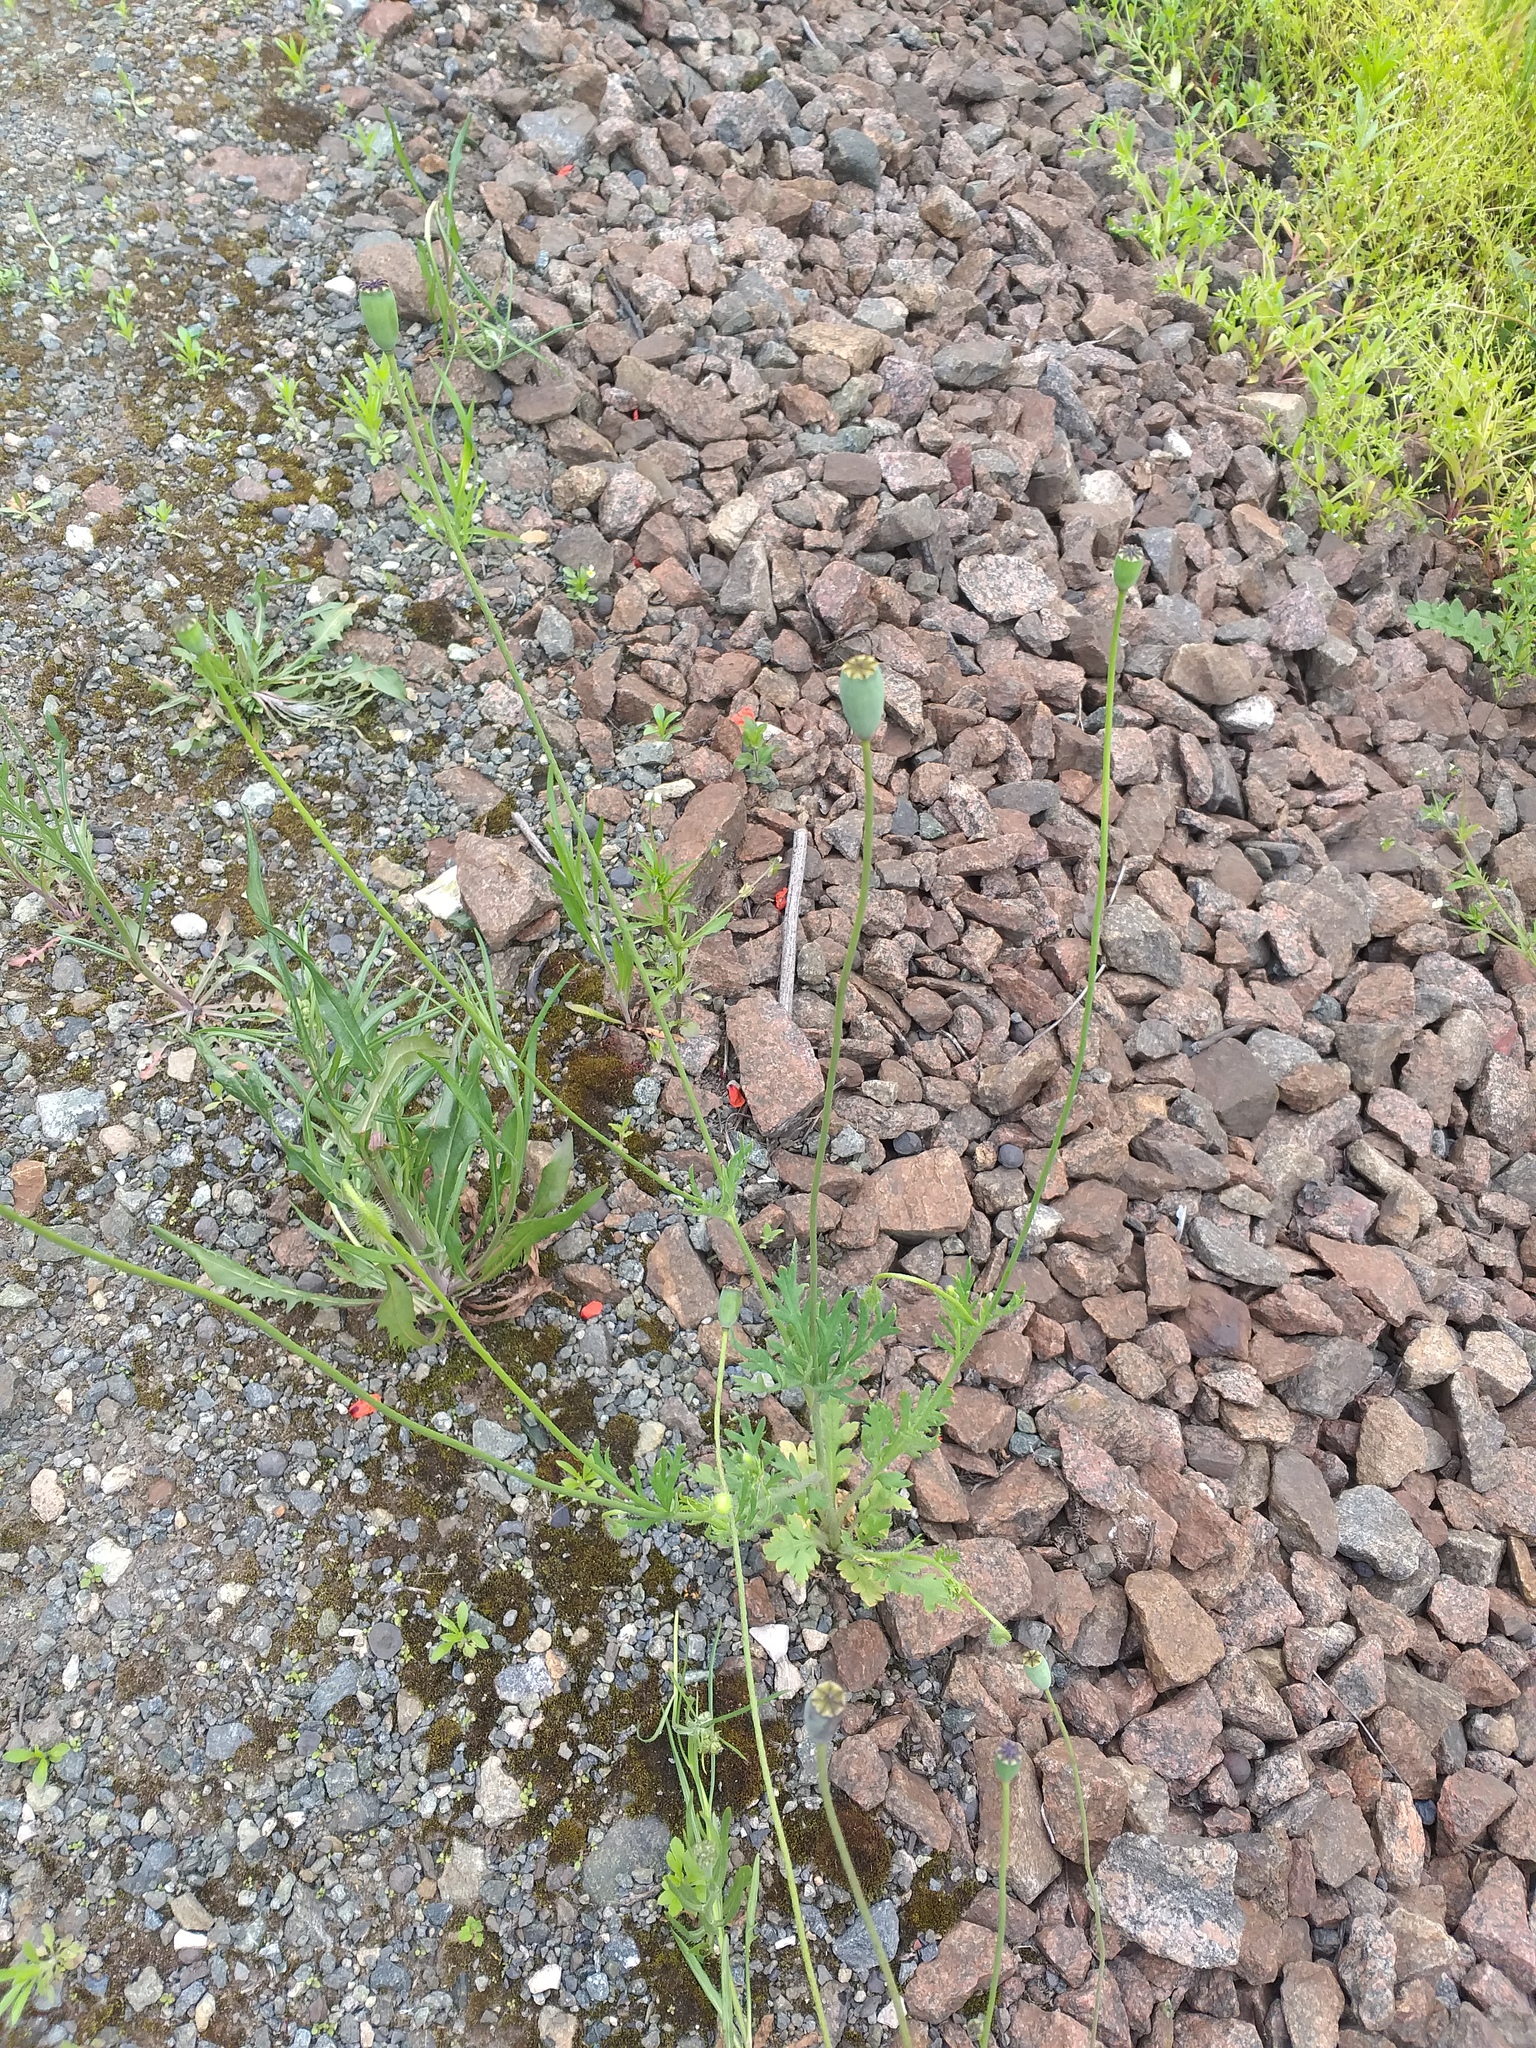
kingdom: Plantae
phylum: Tracheophyta
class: Magnoliopsida
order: Ranunculales
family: Papaveraceae
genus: Papaver
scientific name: Papaver dubium
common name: Long-headed poppy
